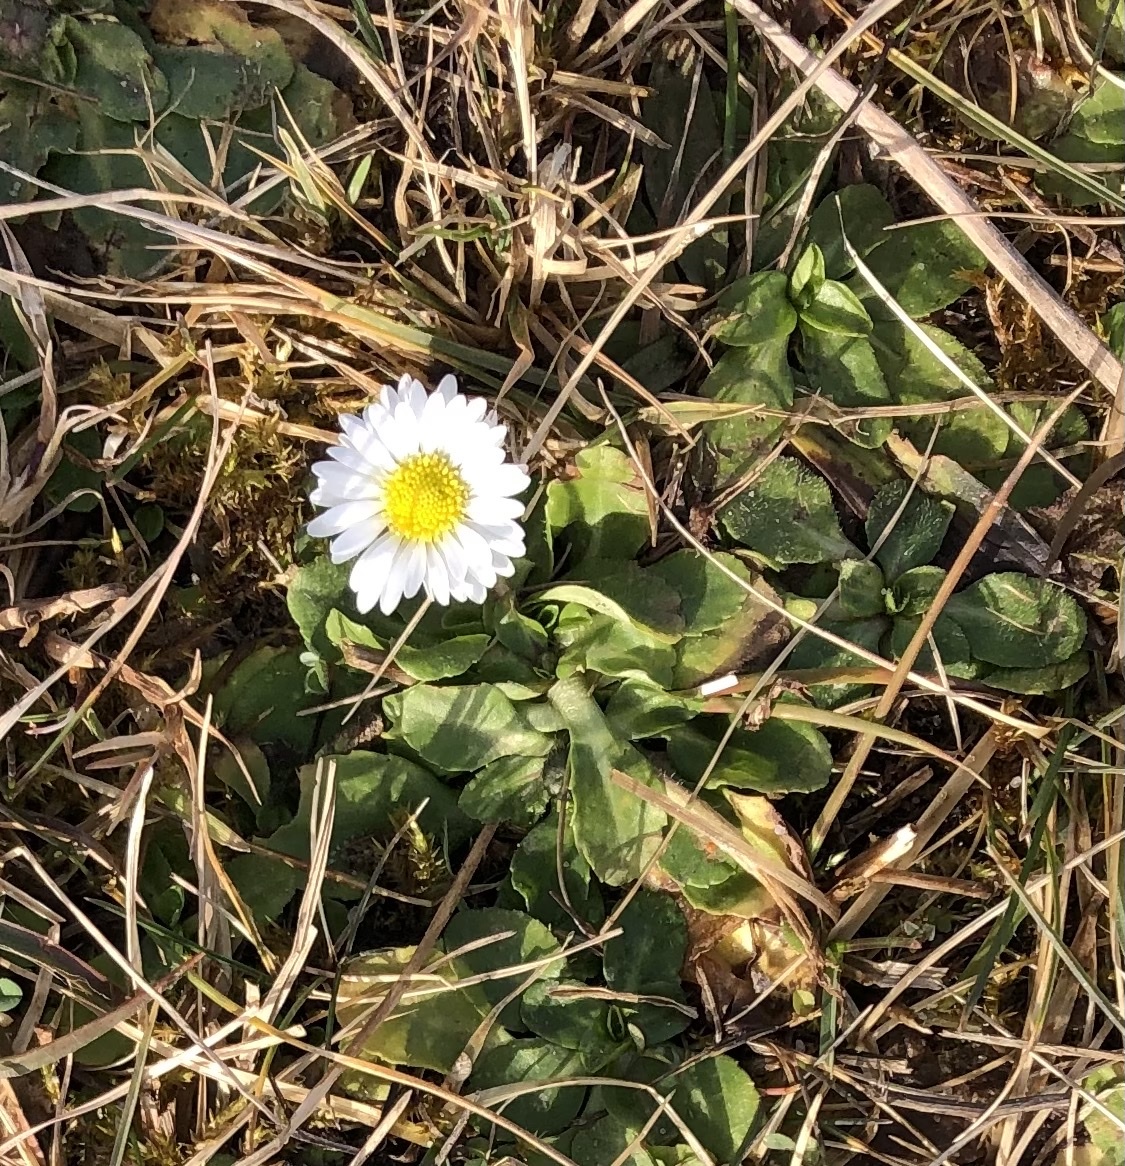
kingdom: Plantae
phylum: Tracheophyta
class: Magnoliopsida
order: Asterales
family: Asteraceae
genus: Bellis
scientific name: Bellis perennis
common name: Lawndaisy
